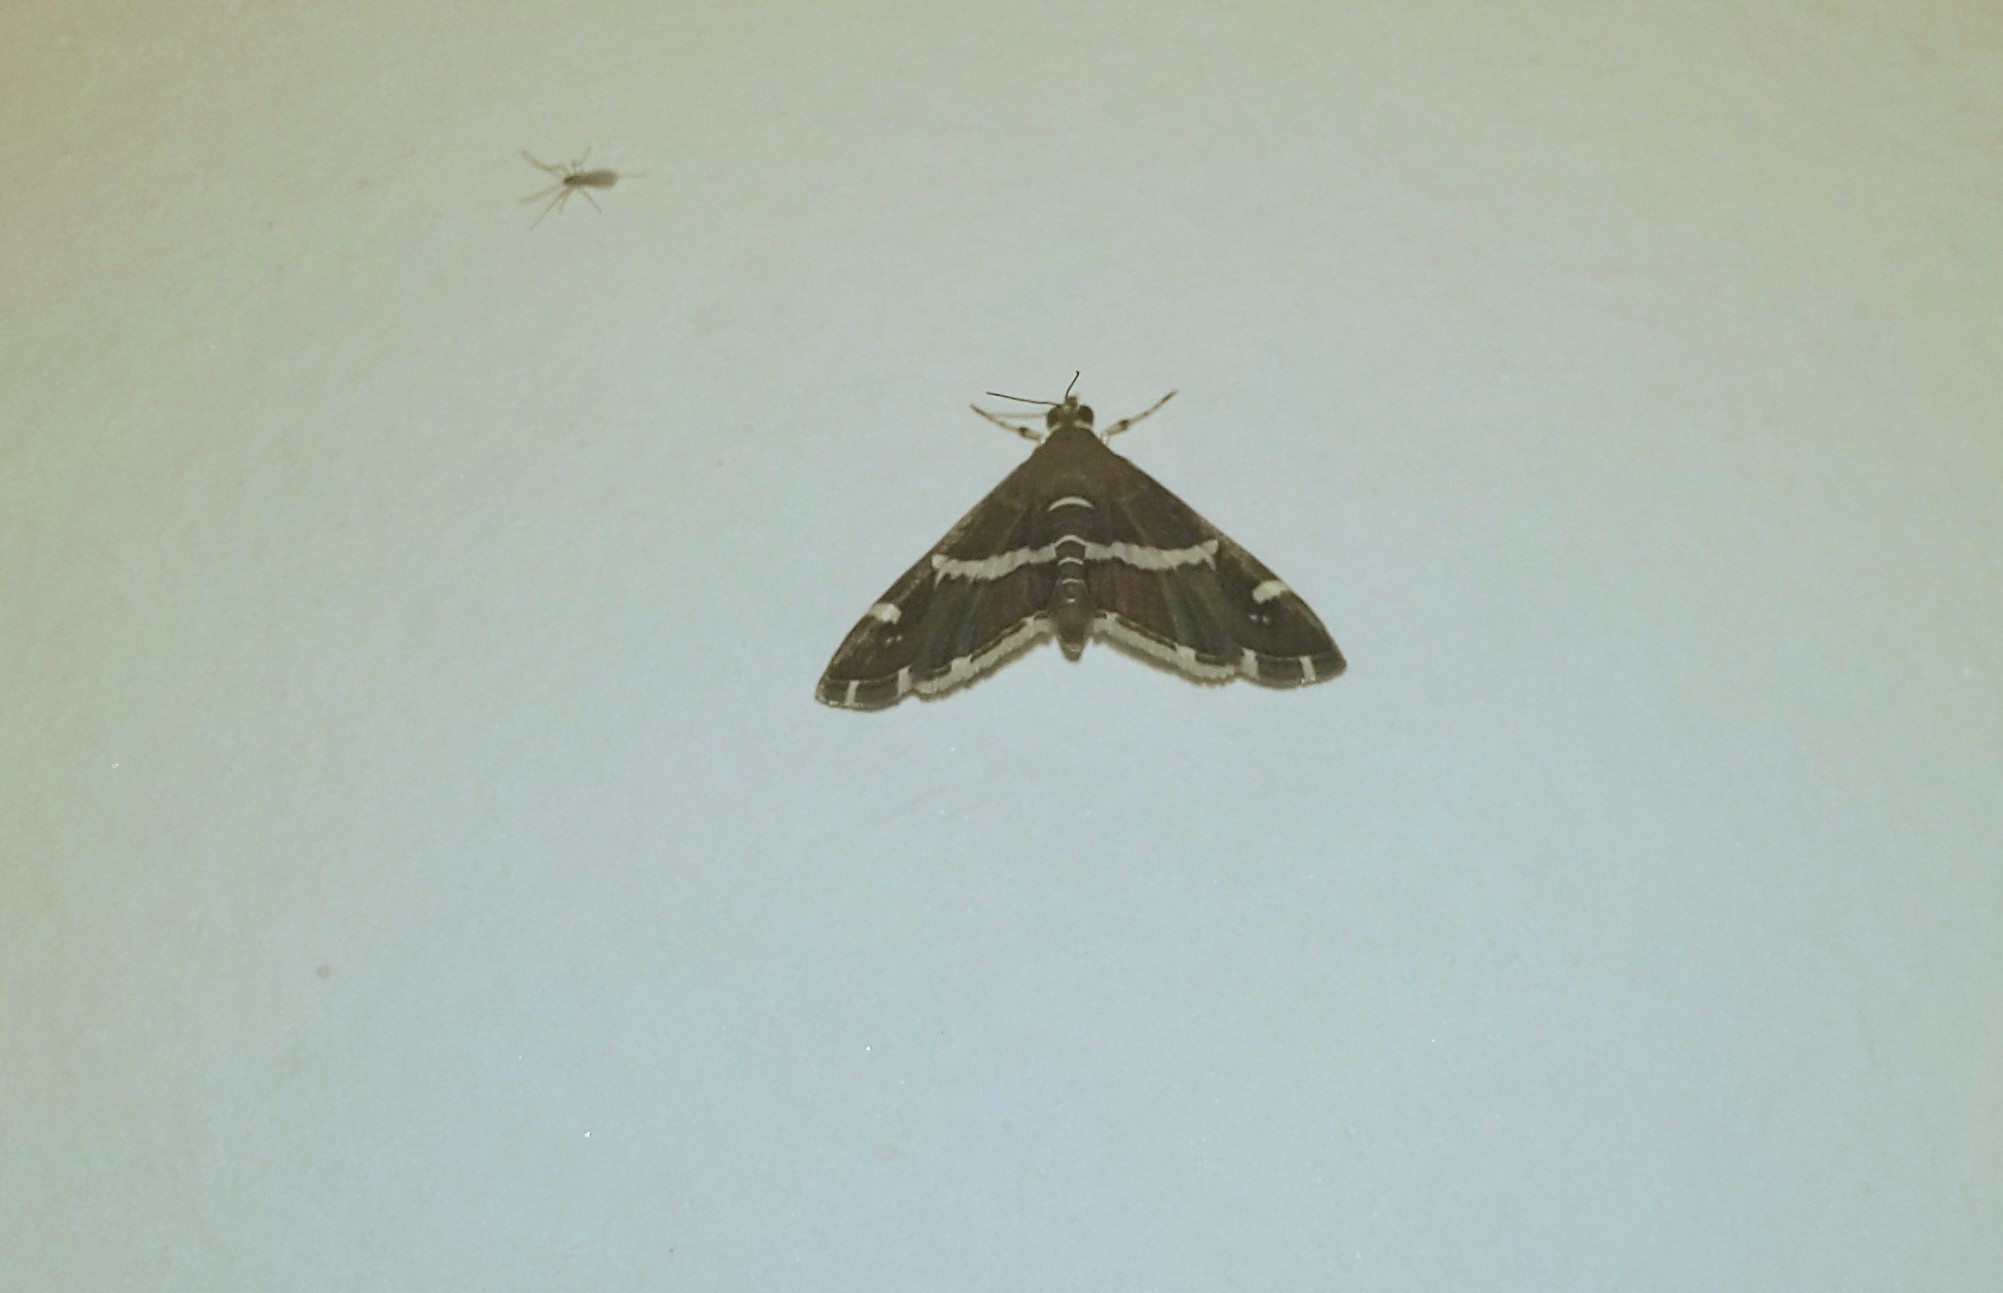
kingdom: Animalia
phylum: Arthropoda
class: Insecta
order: Lepidoptera
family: Crambidae
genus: Spoladea
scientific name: Spoladea recurvalis
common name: Beet webworm moth
